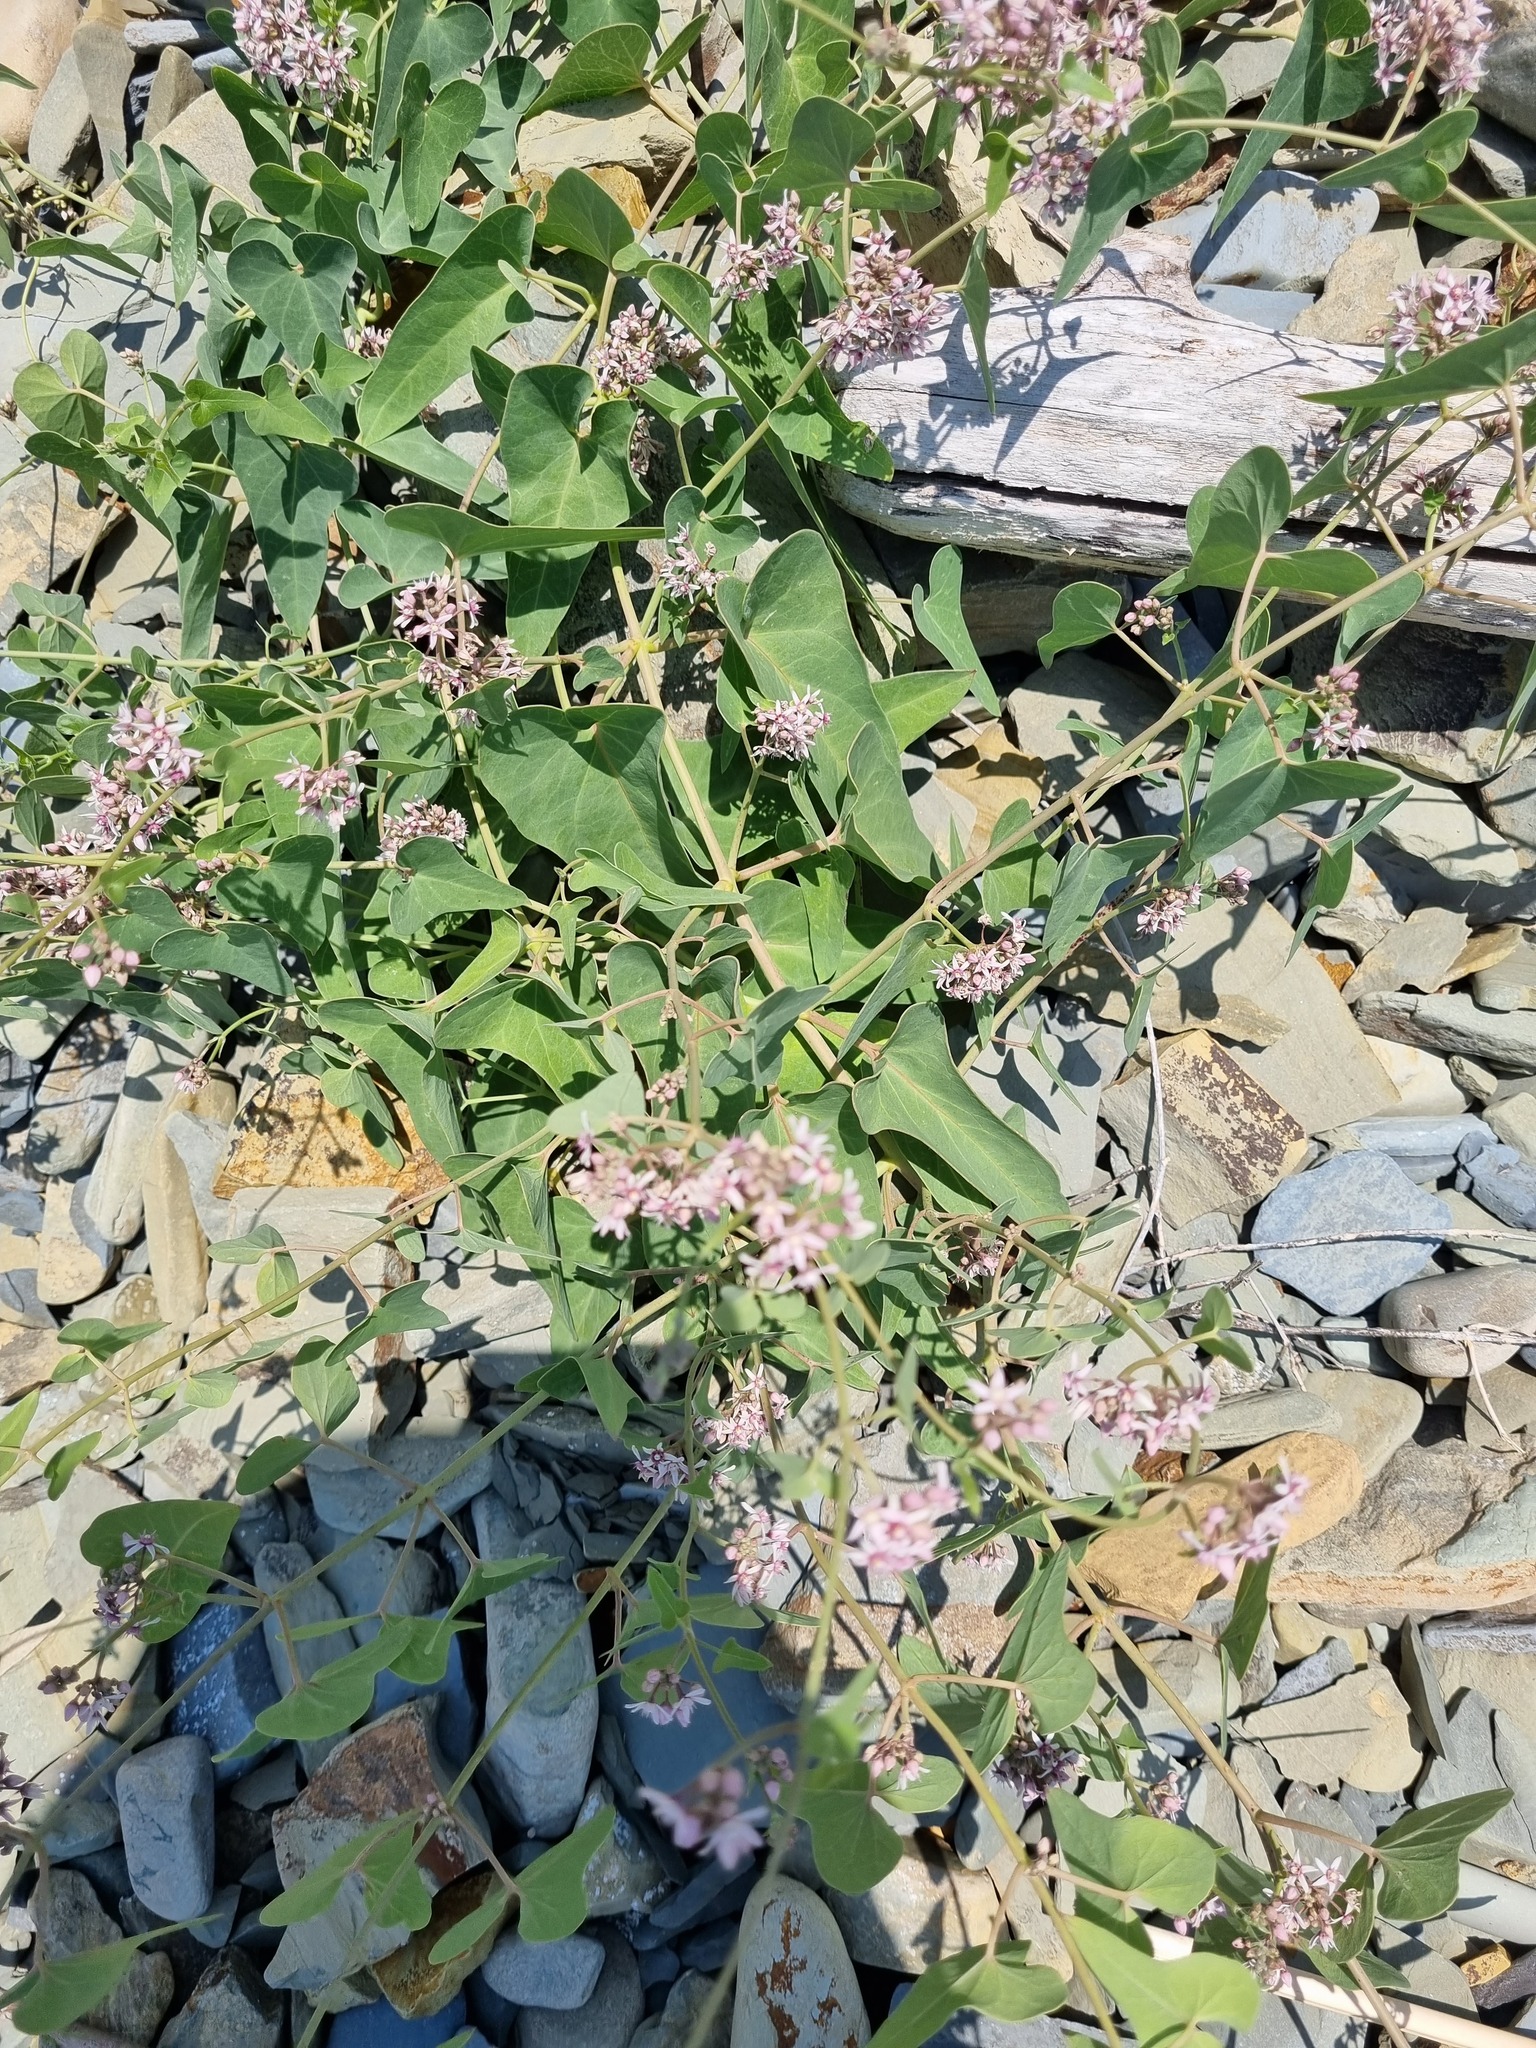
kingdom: Plantae
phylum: Tracheophyta
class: Magnoliopsida
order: Gentianales
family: Apocynaceae
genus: Cynanchum
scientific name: Cynanchum acutum
